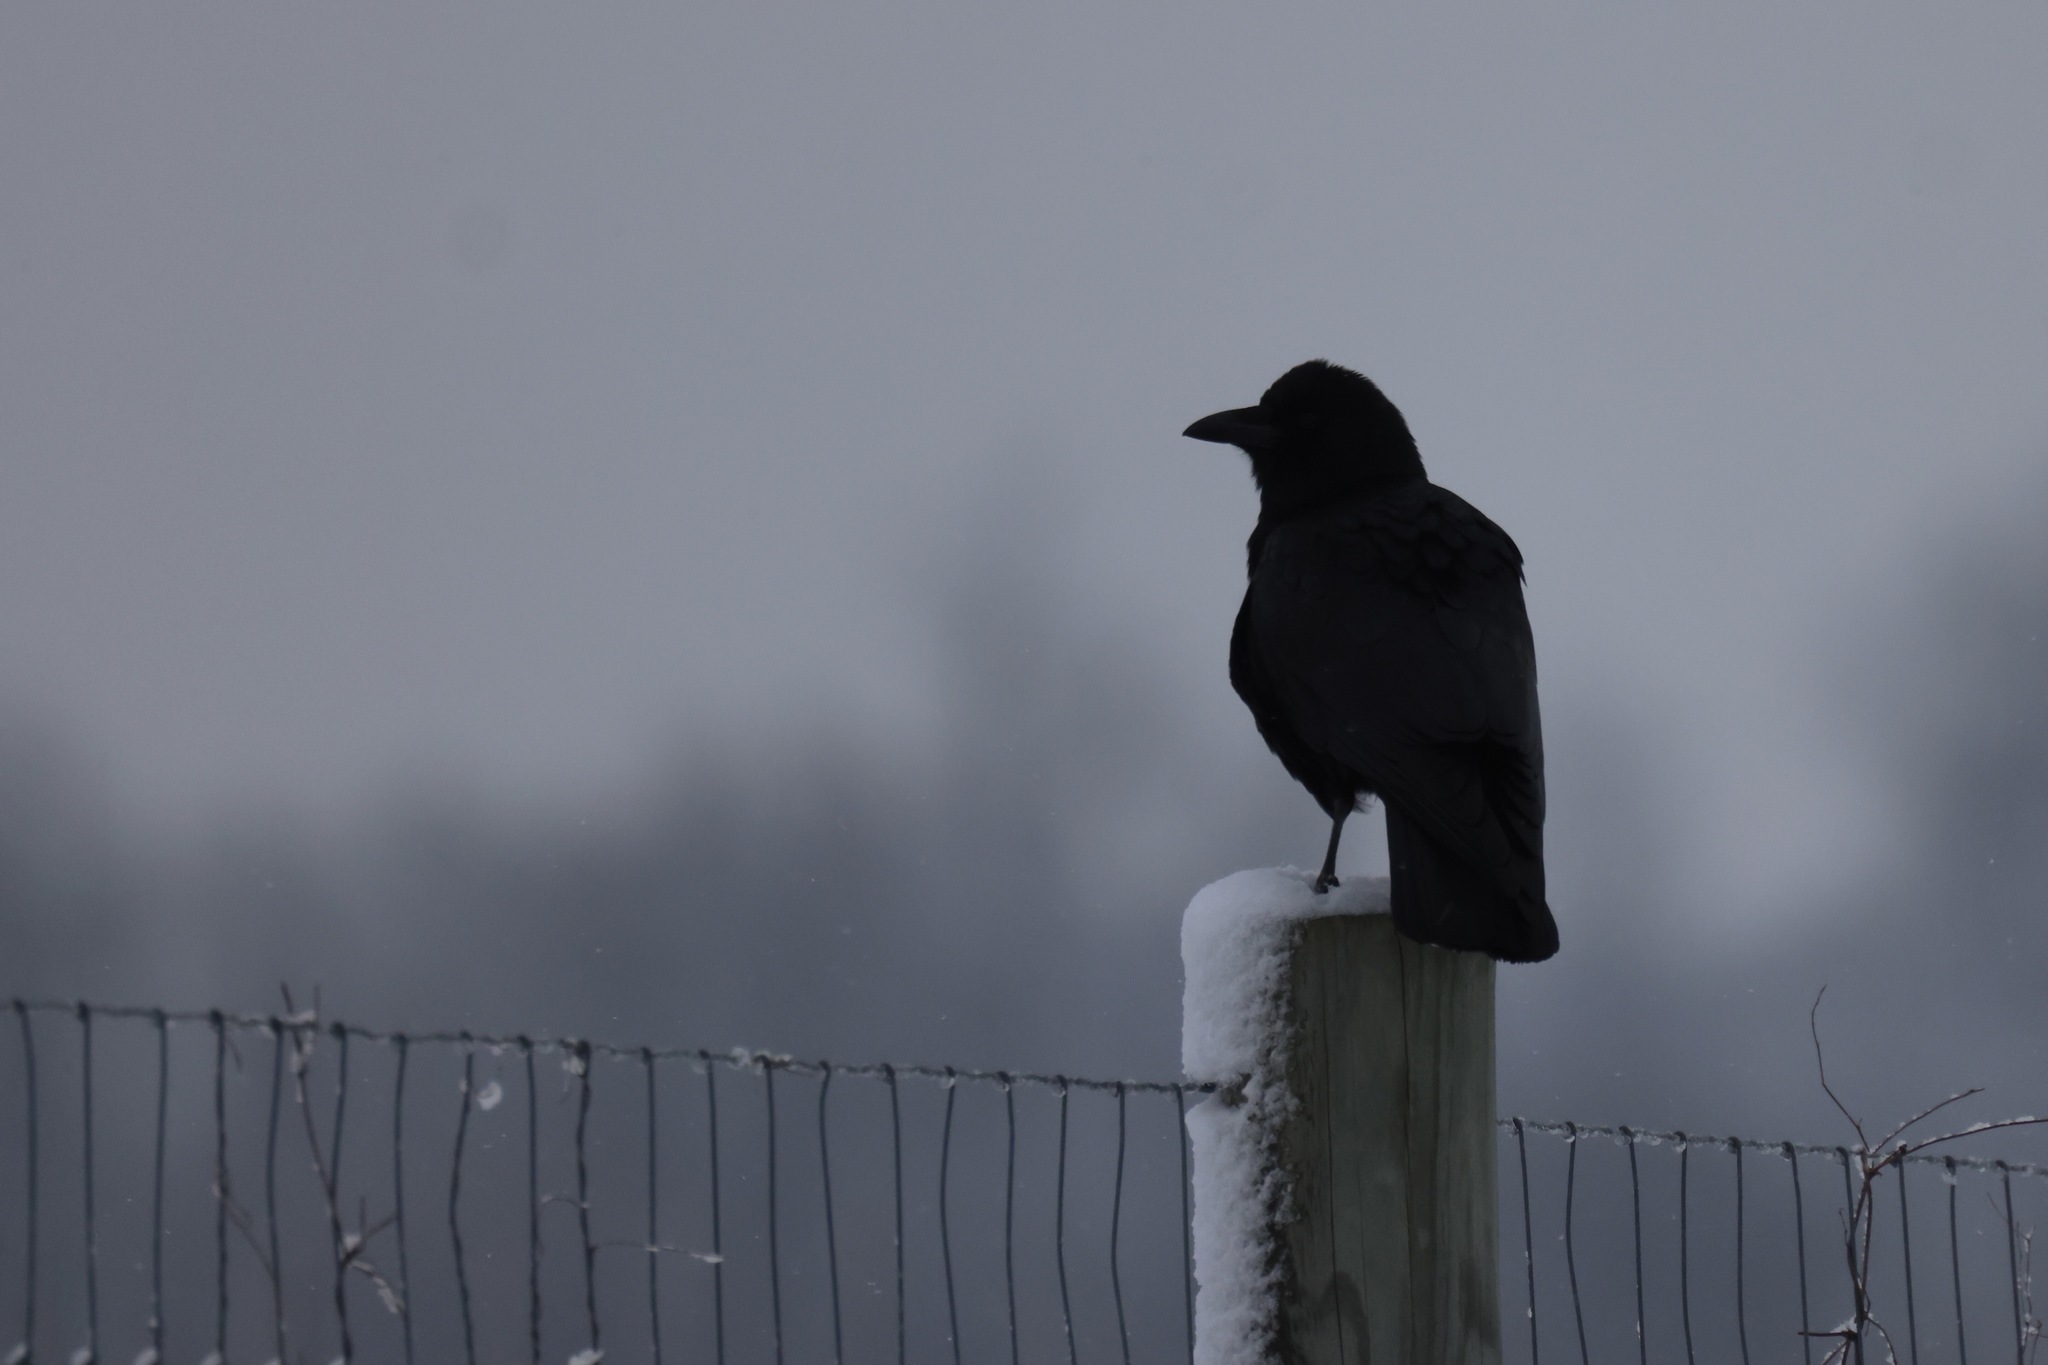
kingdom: Animalia
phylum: Chordata
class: Aves
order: Passeriformes
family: Corvidae
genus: Corvus
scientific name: Corvus brachyrhynchos
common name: American crow
